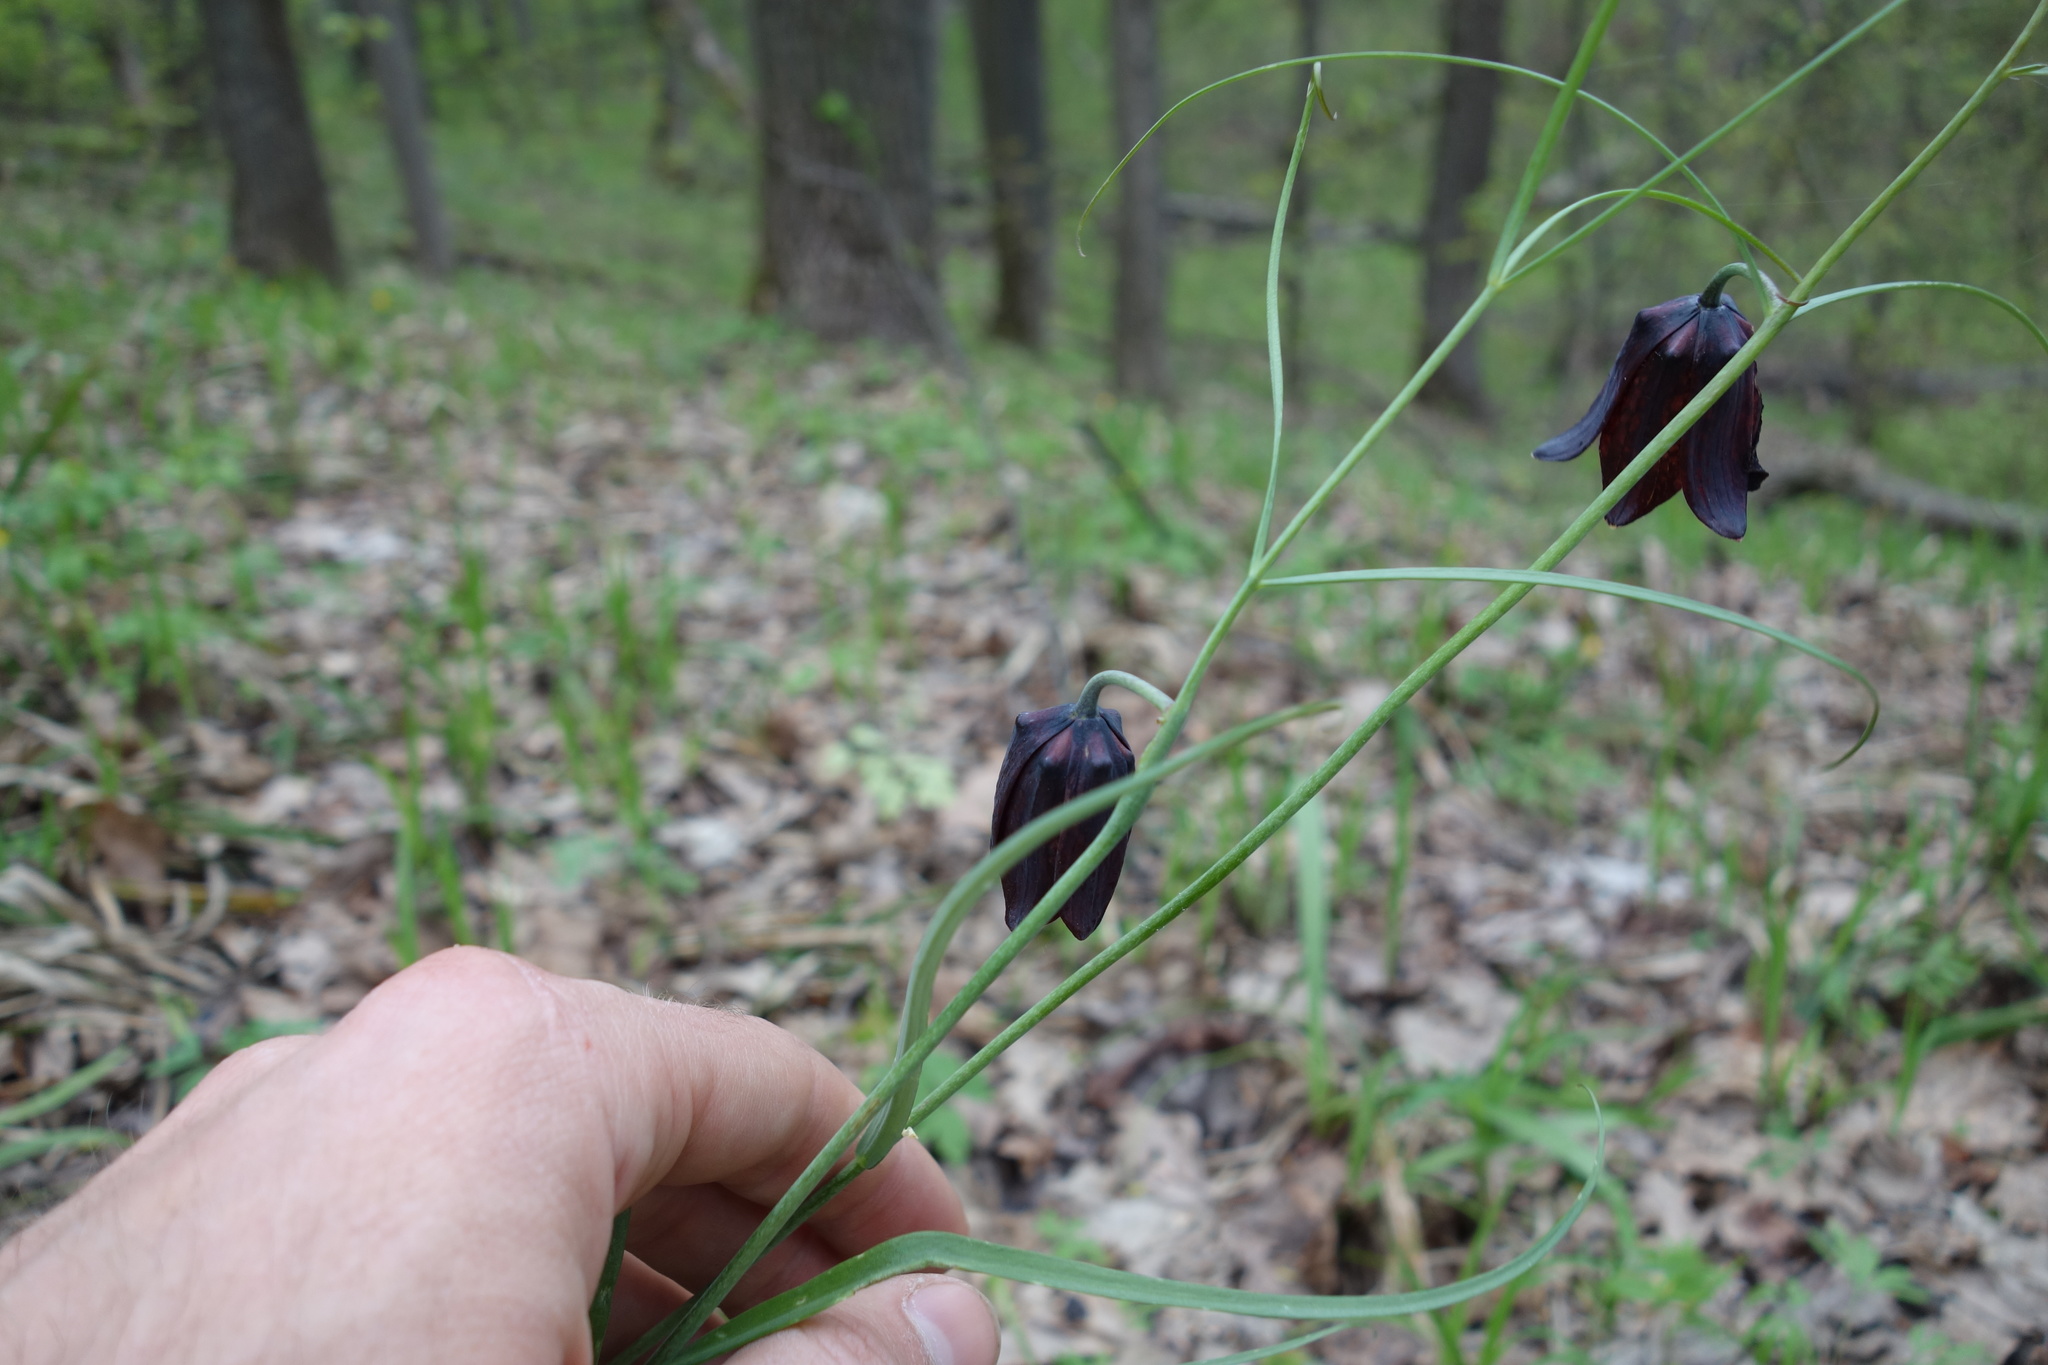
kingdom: Plantae
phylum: Tracheophyta
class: Liliopsida
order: Liliales
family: Liliaceae
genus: Fritillaria
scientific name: Fritillaria ruthenica
